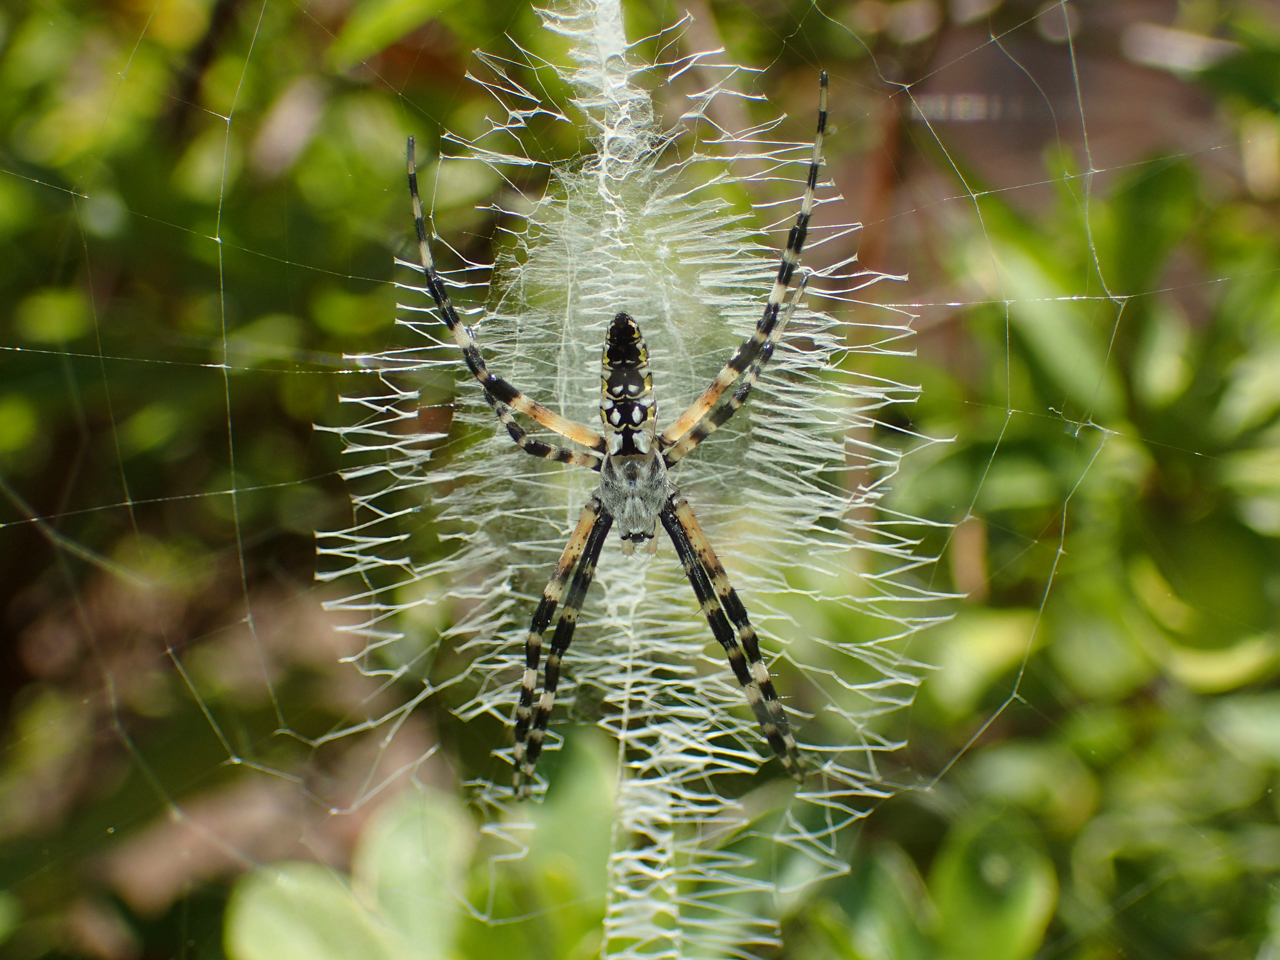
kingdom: Animalia
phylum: Arthropoda
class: Arachnida
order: Araneae
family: Araneidae
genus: Argiope
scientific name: Argiope aurantia
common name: Orb weavers
